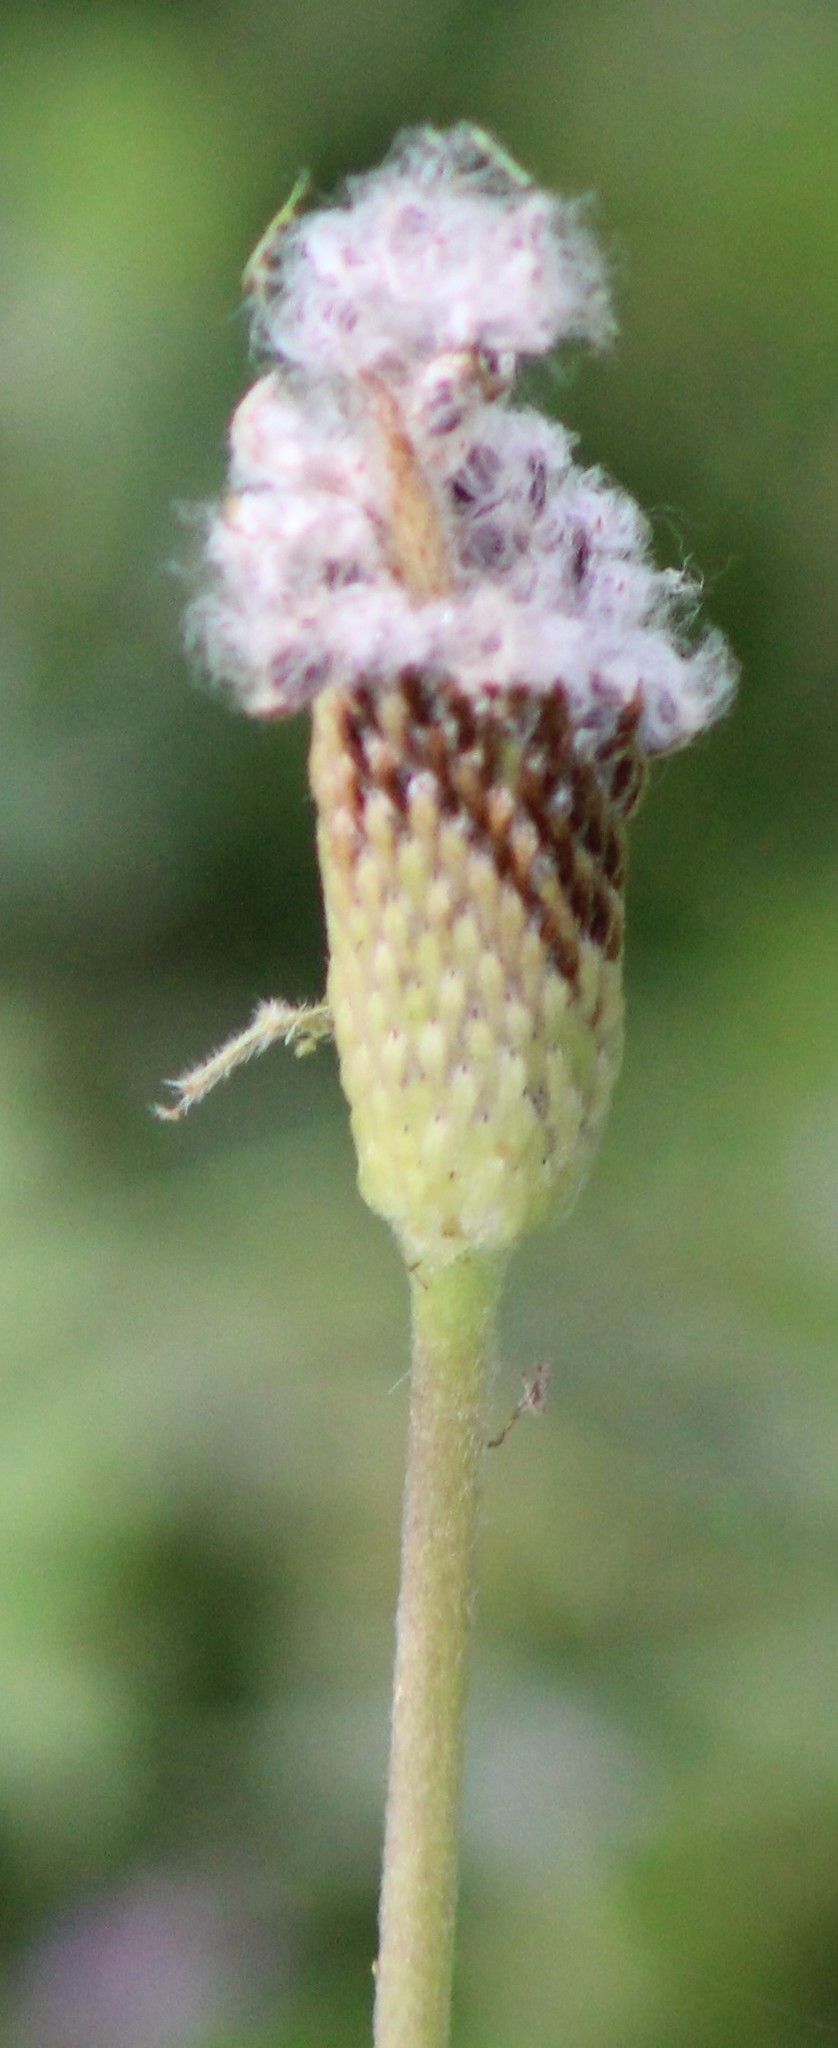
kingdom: Plantae
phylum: Tracheophyta
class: Magnoliopsida
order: Ranunculales
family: Ranunculaceae
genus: Anemone
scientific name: Anemone berlandieri
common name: Ten-petal anemone
